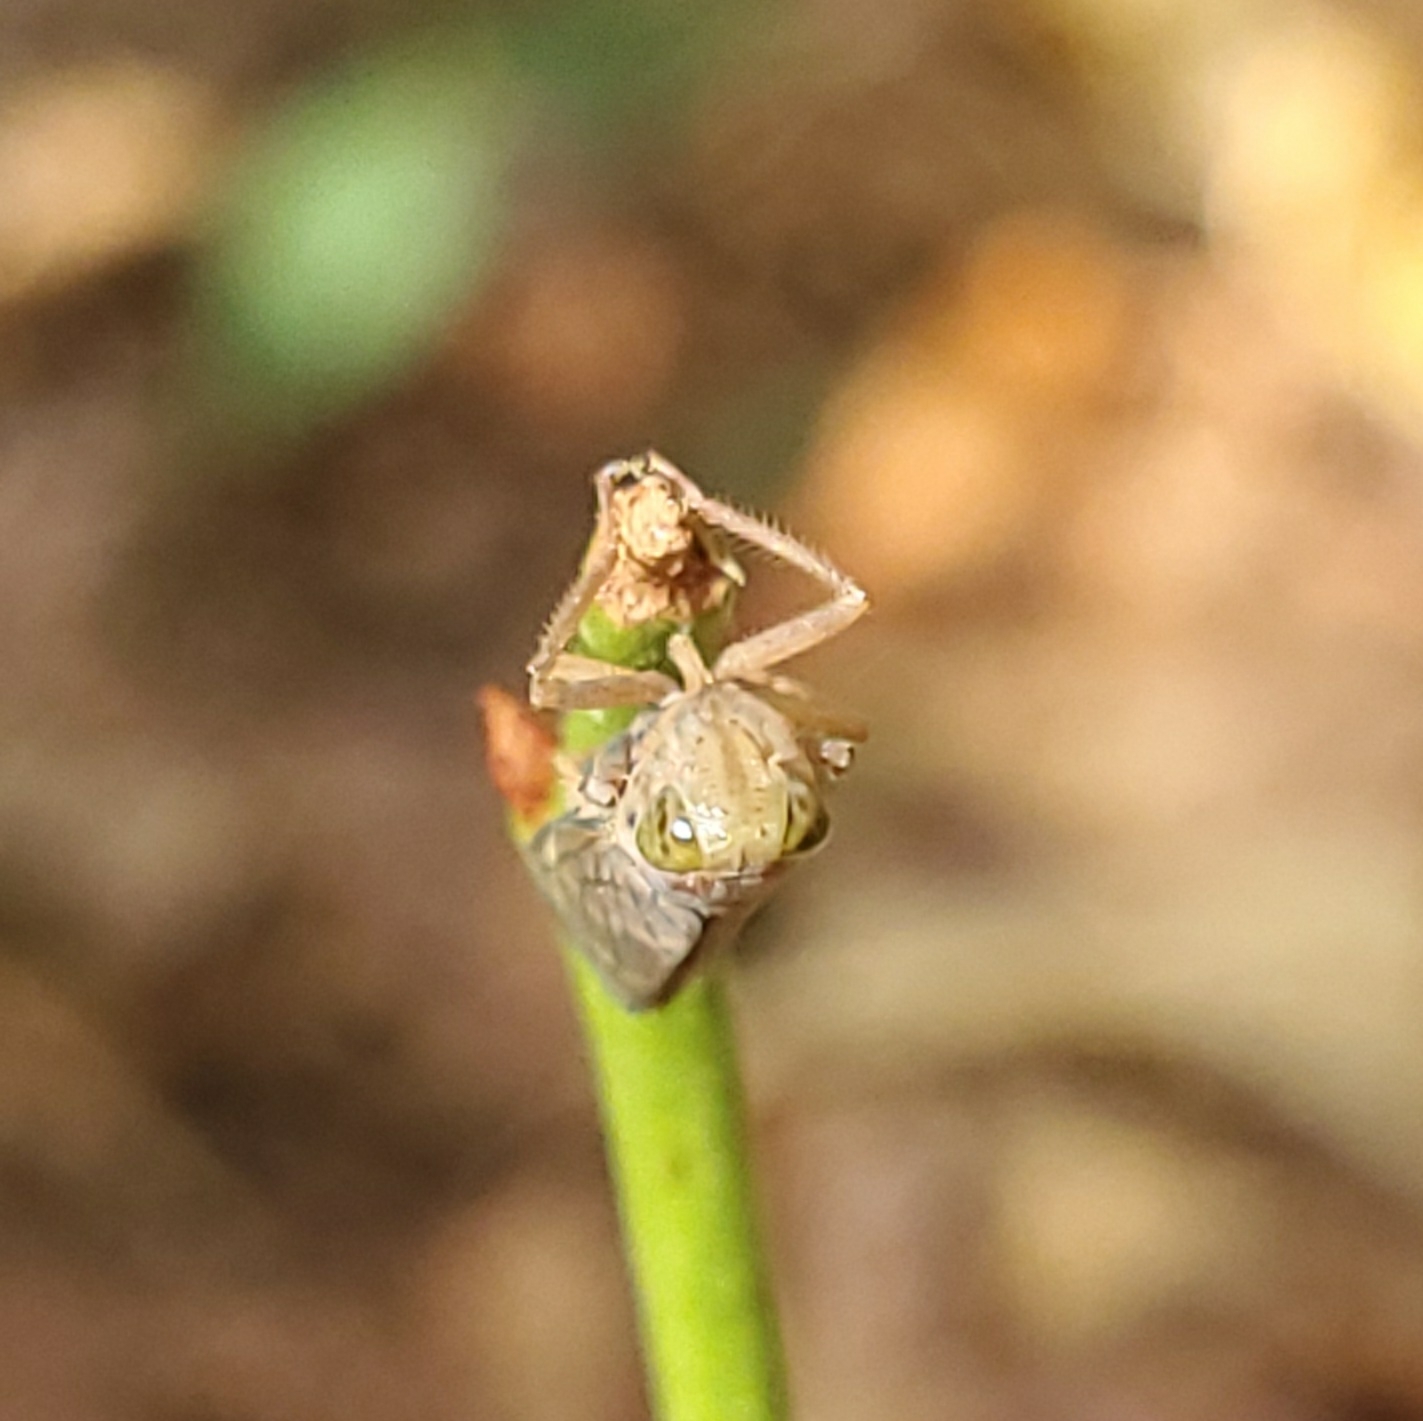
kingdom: Animalia
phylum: Arthropoda
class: Insecta
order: Hemiptera
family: Cicadellidae
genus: Jikradia
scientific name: Jikradia olitoria
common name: Coppery leafhopper
